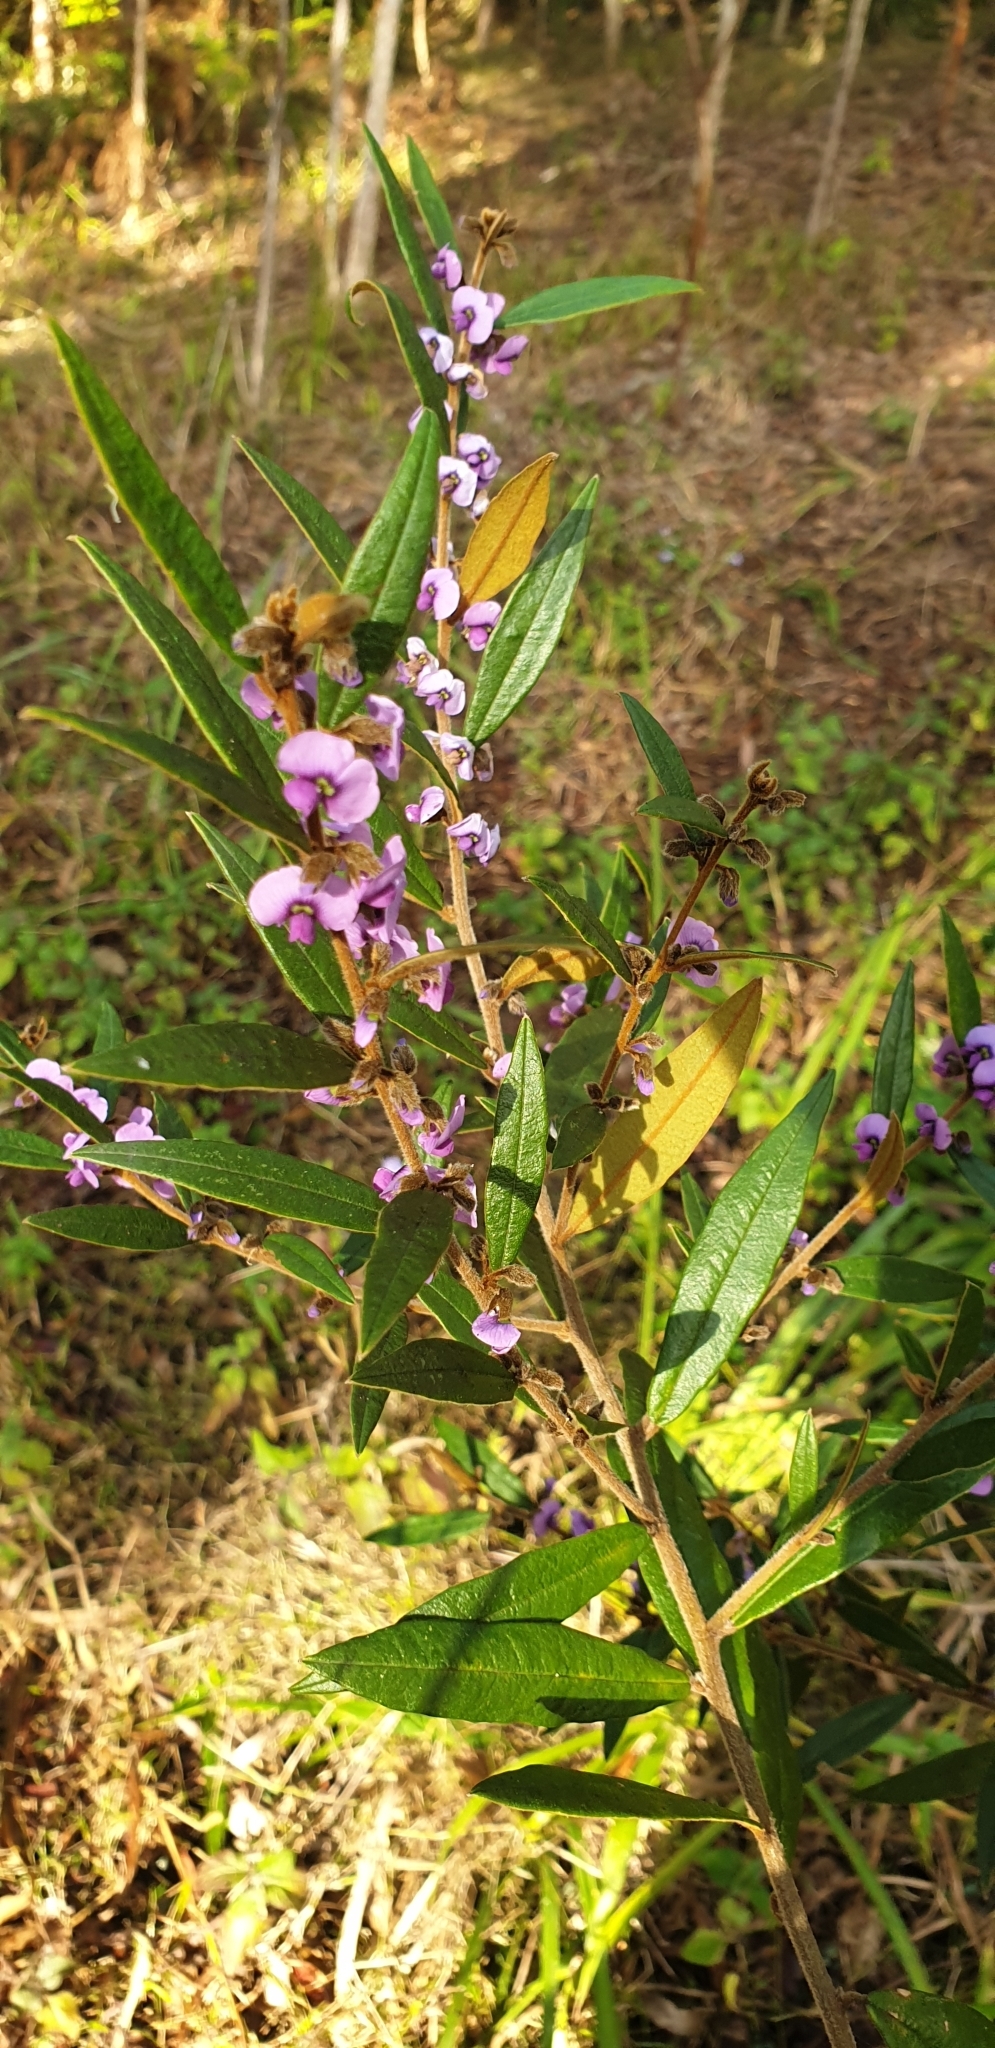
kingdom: Plantae
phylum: Tracheophyta
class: Magnoliopsida
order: Fabales
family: Fabaceae
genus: Hovea
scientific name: Hovea acutifolia
